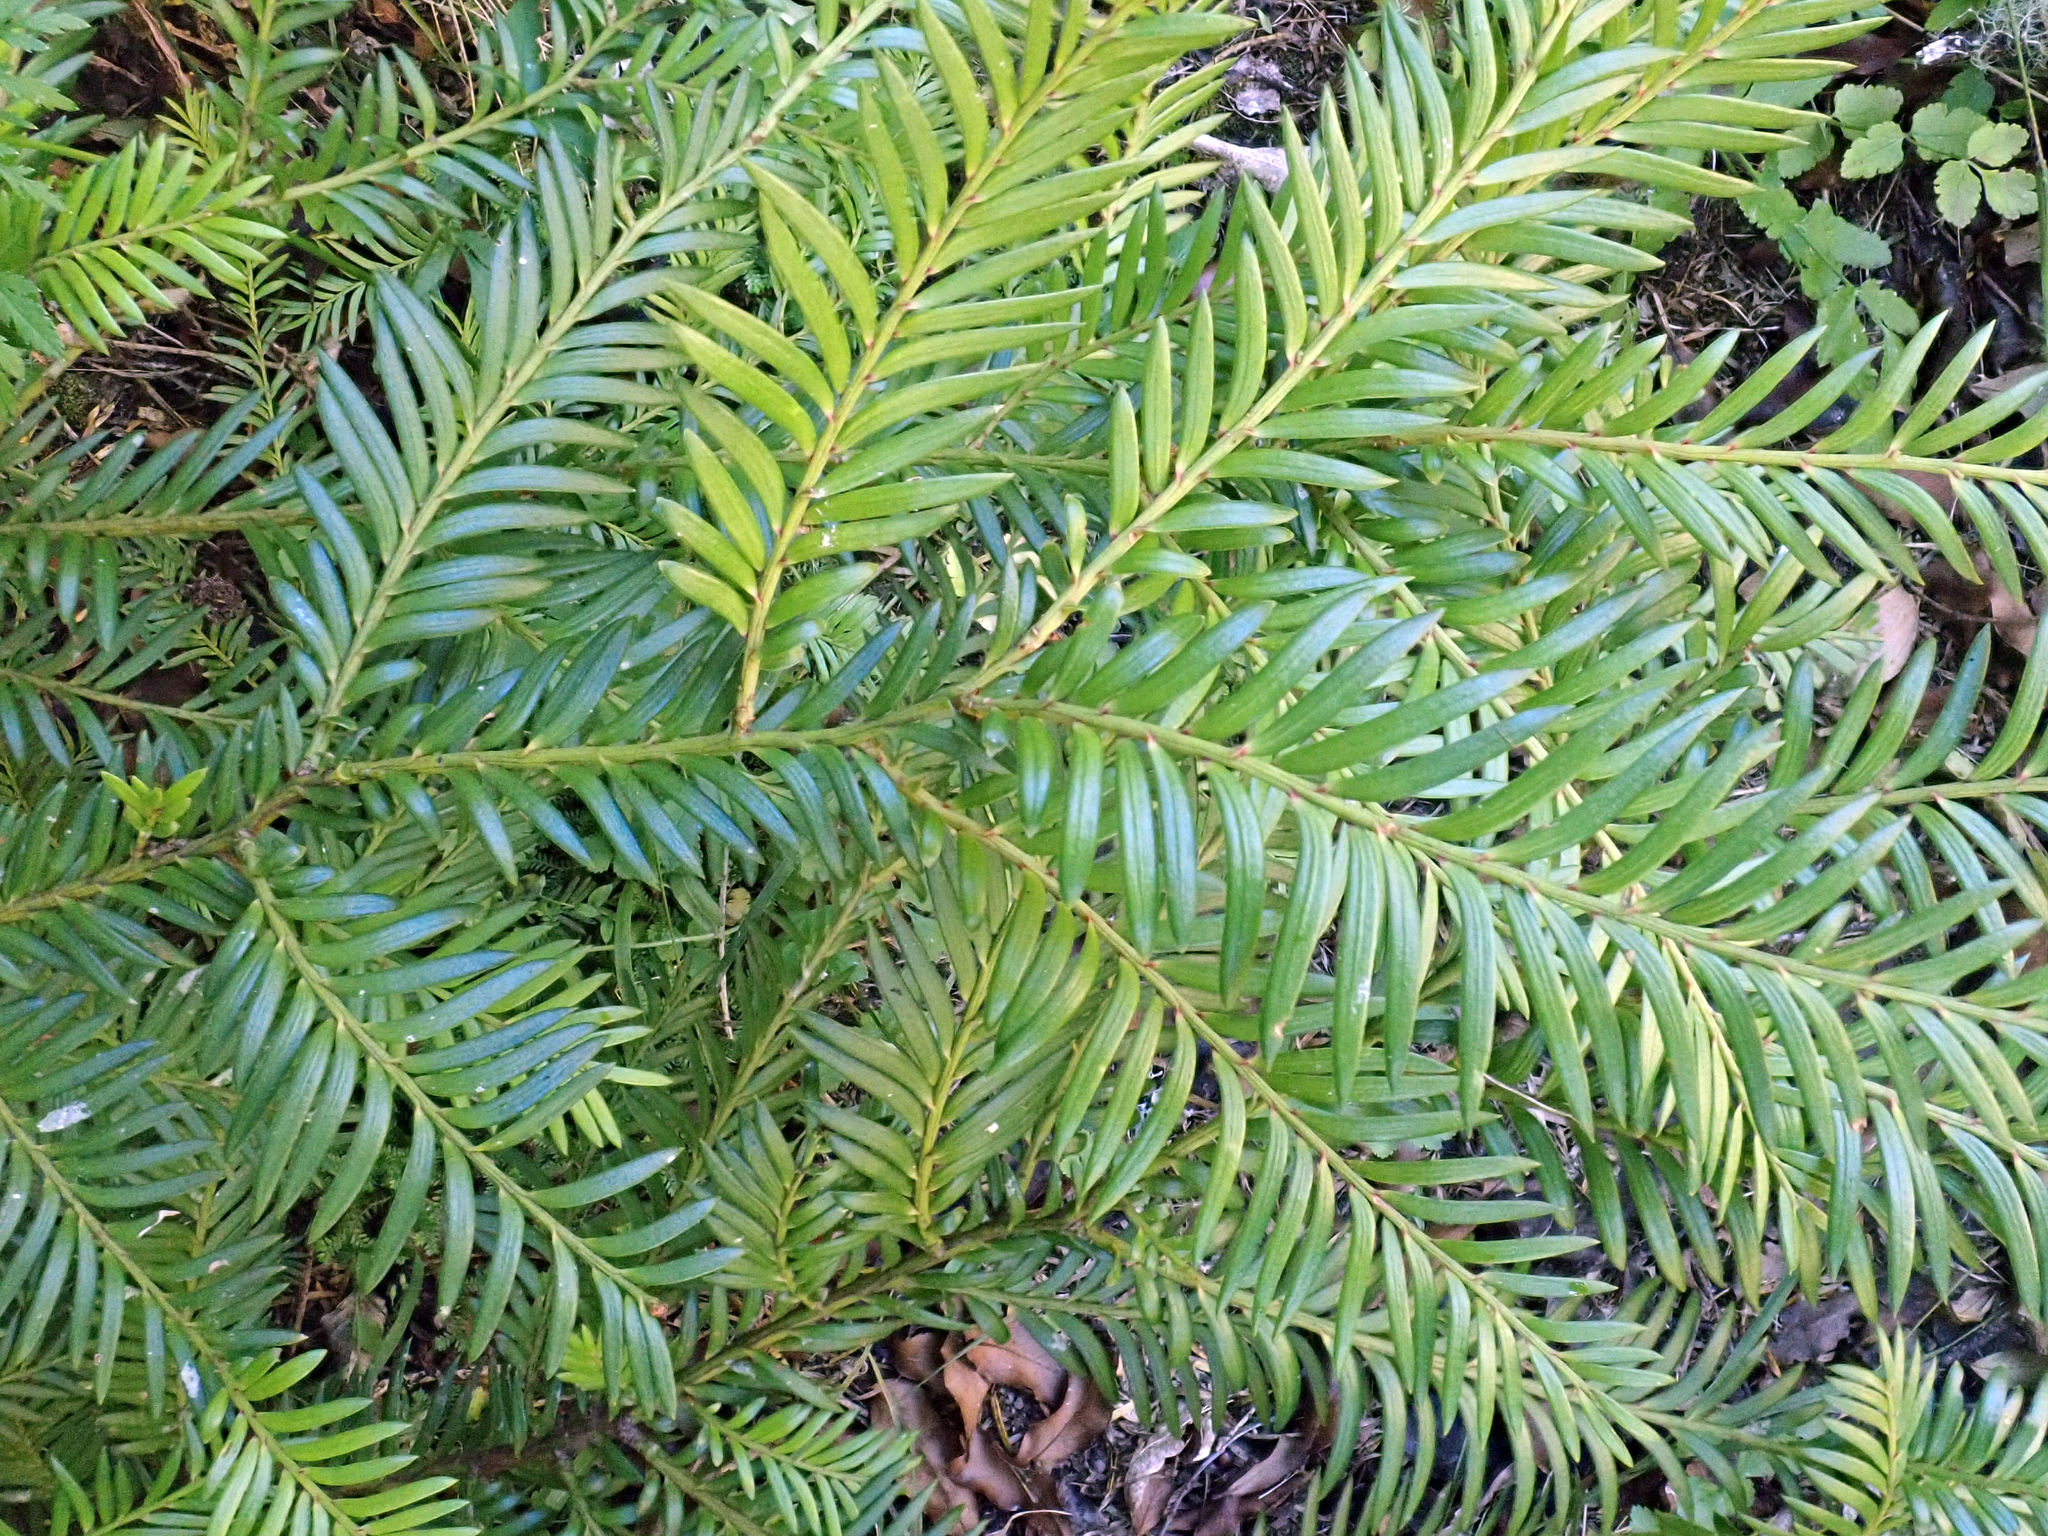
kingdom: Plantae
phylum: Tracheophyta
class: Pinopsida
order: Pinales
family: Podocarpaceae
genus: Prumnopitys
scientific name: Prumnopitys ferruginea
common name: Brown pine
